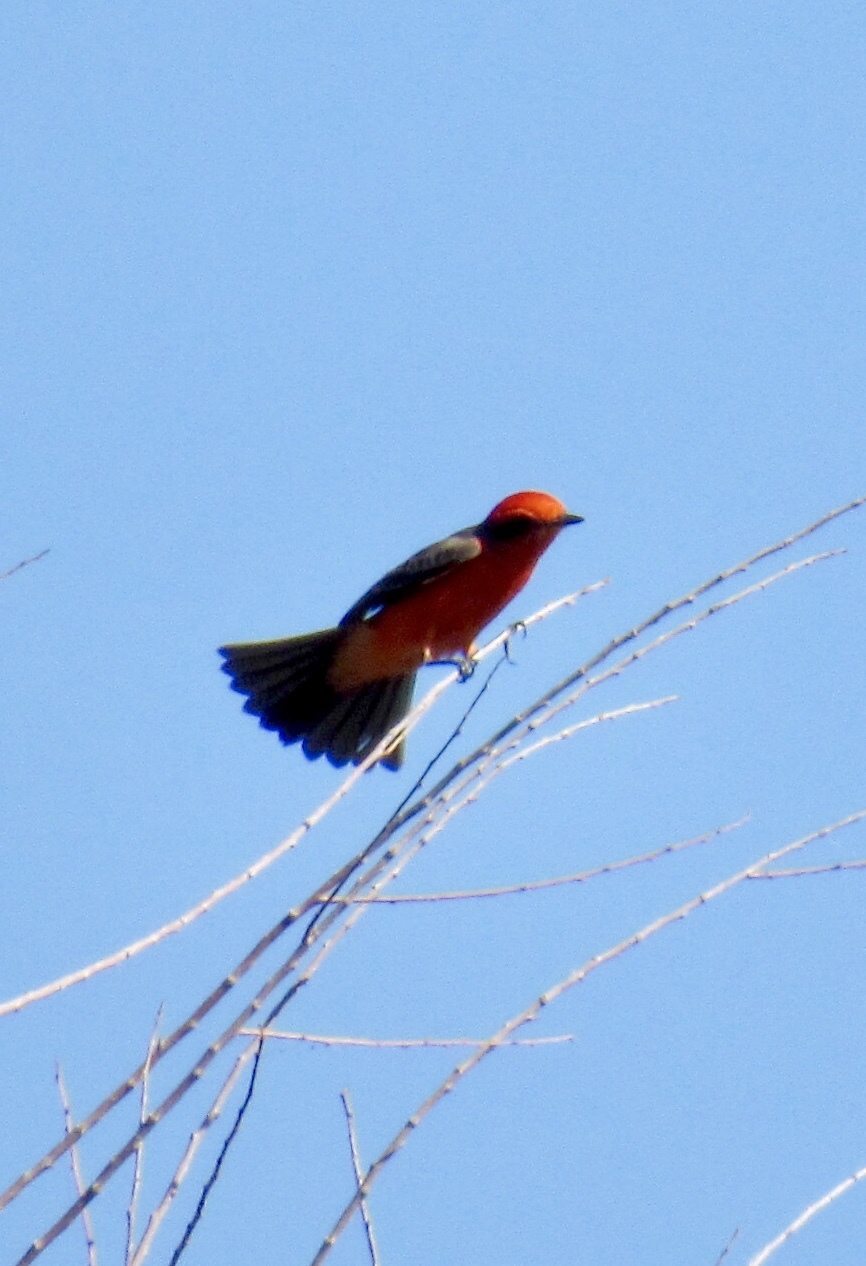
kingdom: Animalia
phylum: Chordata
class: Aves
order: Passeriformes
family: Tyrannidae
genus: Pyrocephalus
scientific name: Pyrocephalus rubinus
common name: Vermilion flycatcher
